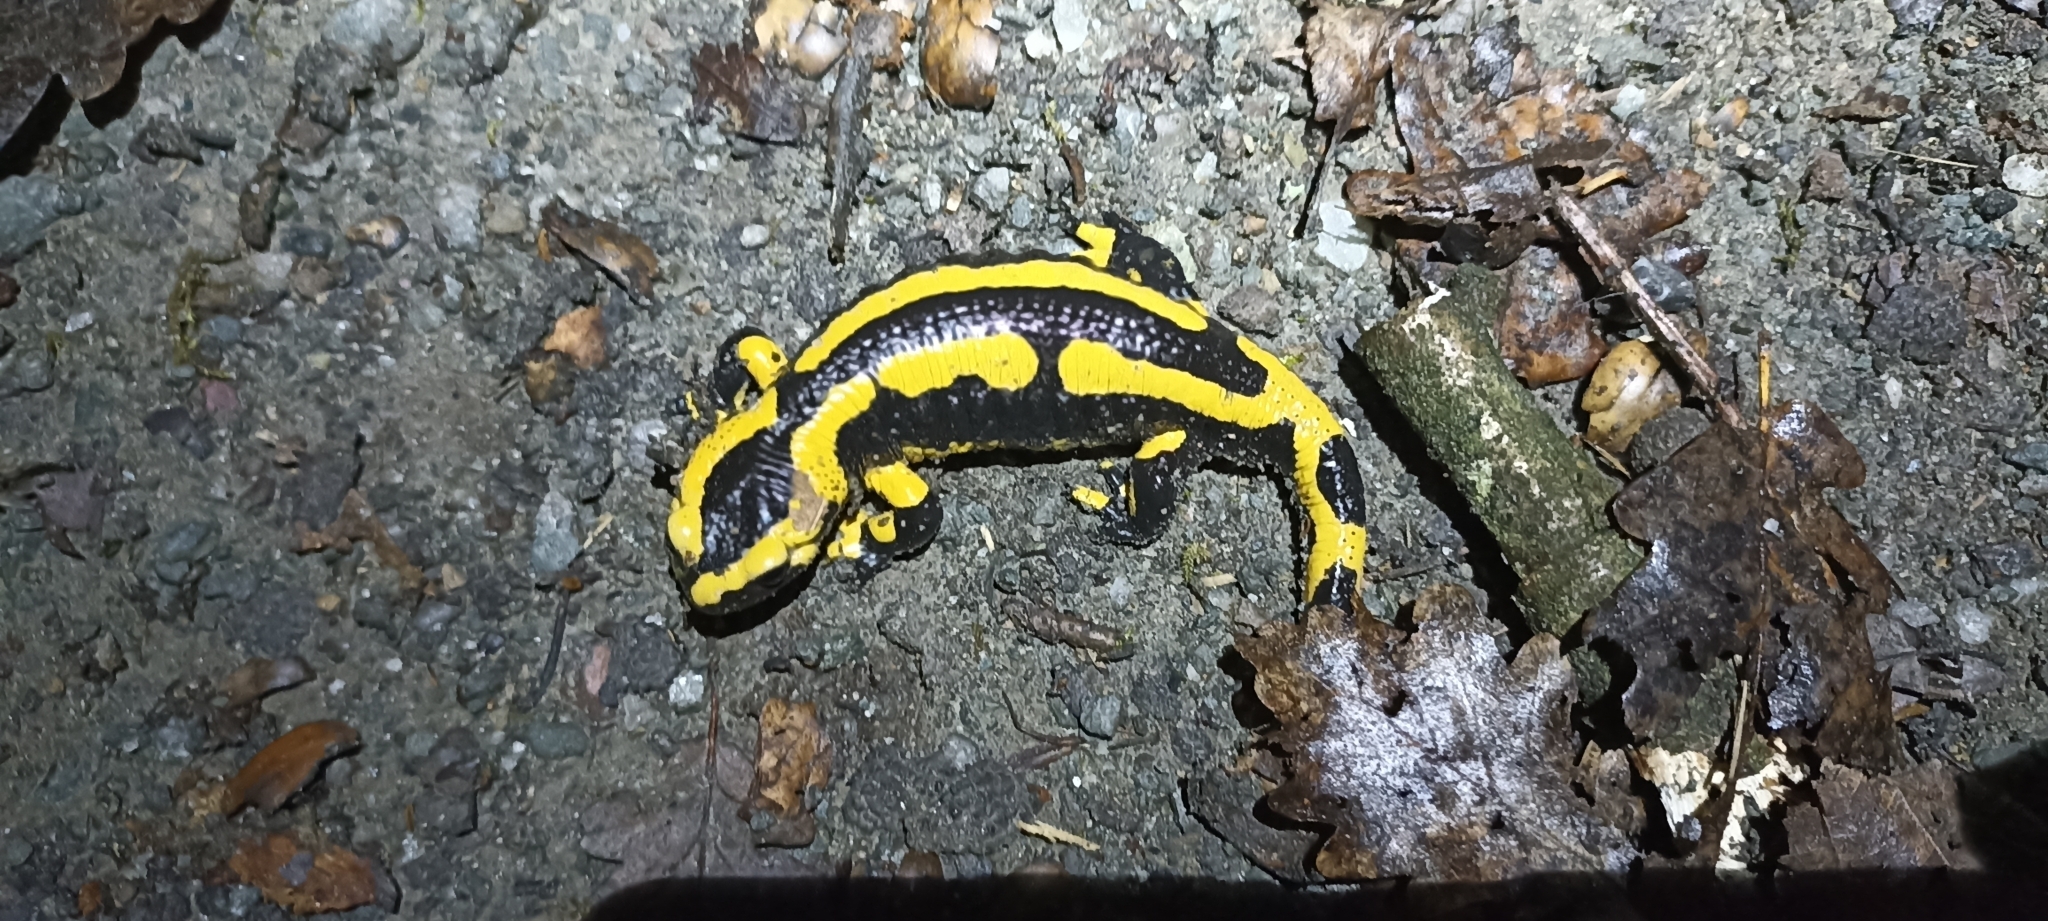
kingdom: Animalia
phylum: Chordata
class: Amphibia
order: Caudata
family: Salamandridae
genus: Salamandra
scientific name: Salamandra salamandra
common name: Fire salamander
